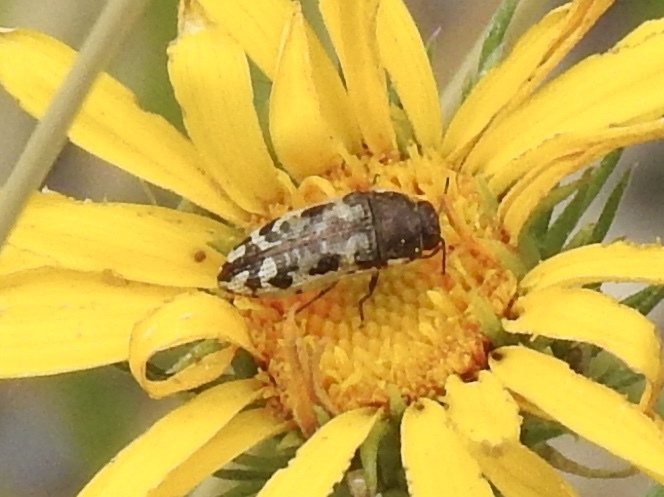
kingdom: Animalia
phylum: Arthropoda
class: Insecta
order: Coleoptera
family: Buprestidae
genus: Acmaeodera
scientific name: Acmaeodera bowditchi
